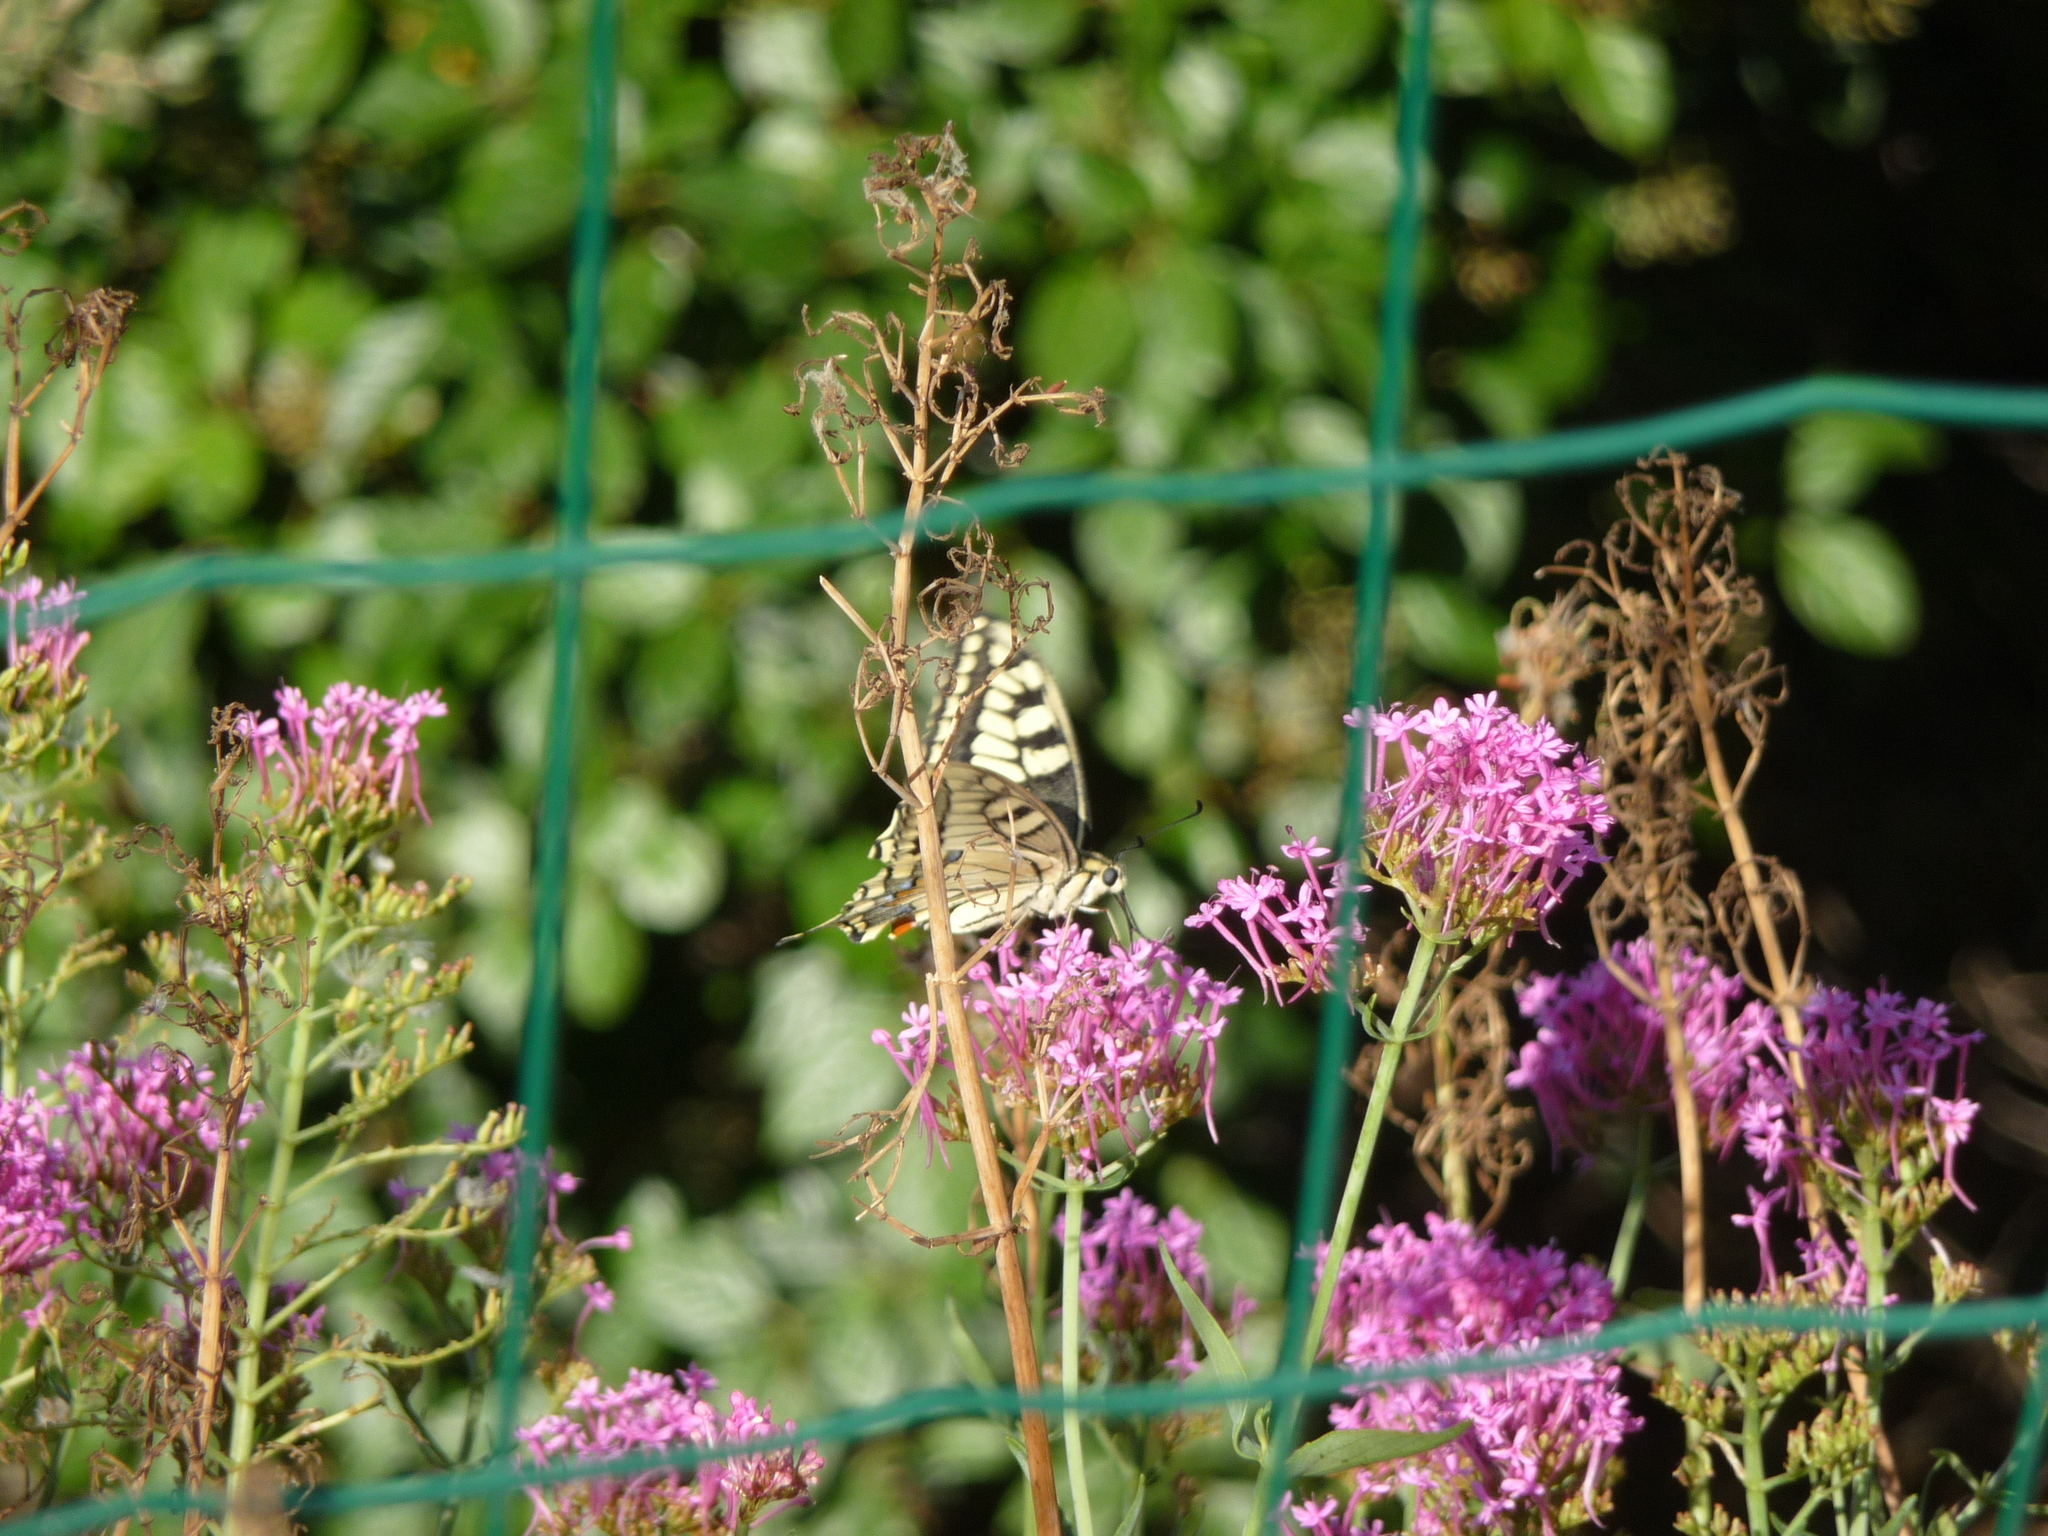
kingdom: Animalia
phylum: Arthropoda
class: Insecta
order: Lepidoptera
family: Papilionidae
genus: Papilio
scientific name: Papilio machaon
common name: Swallowtail
